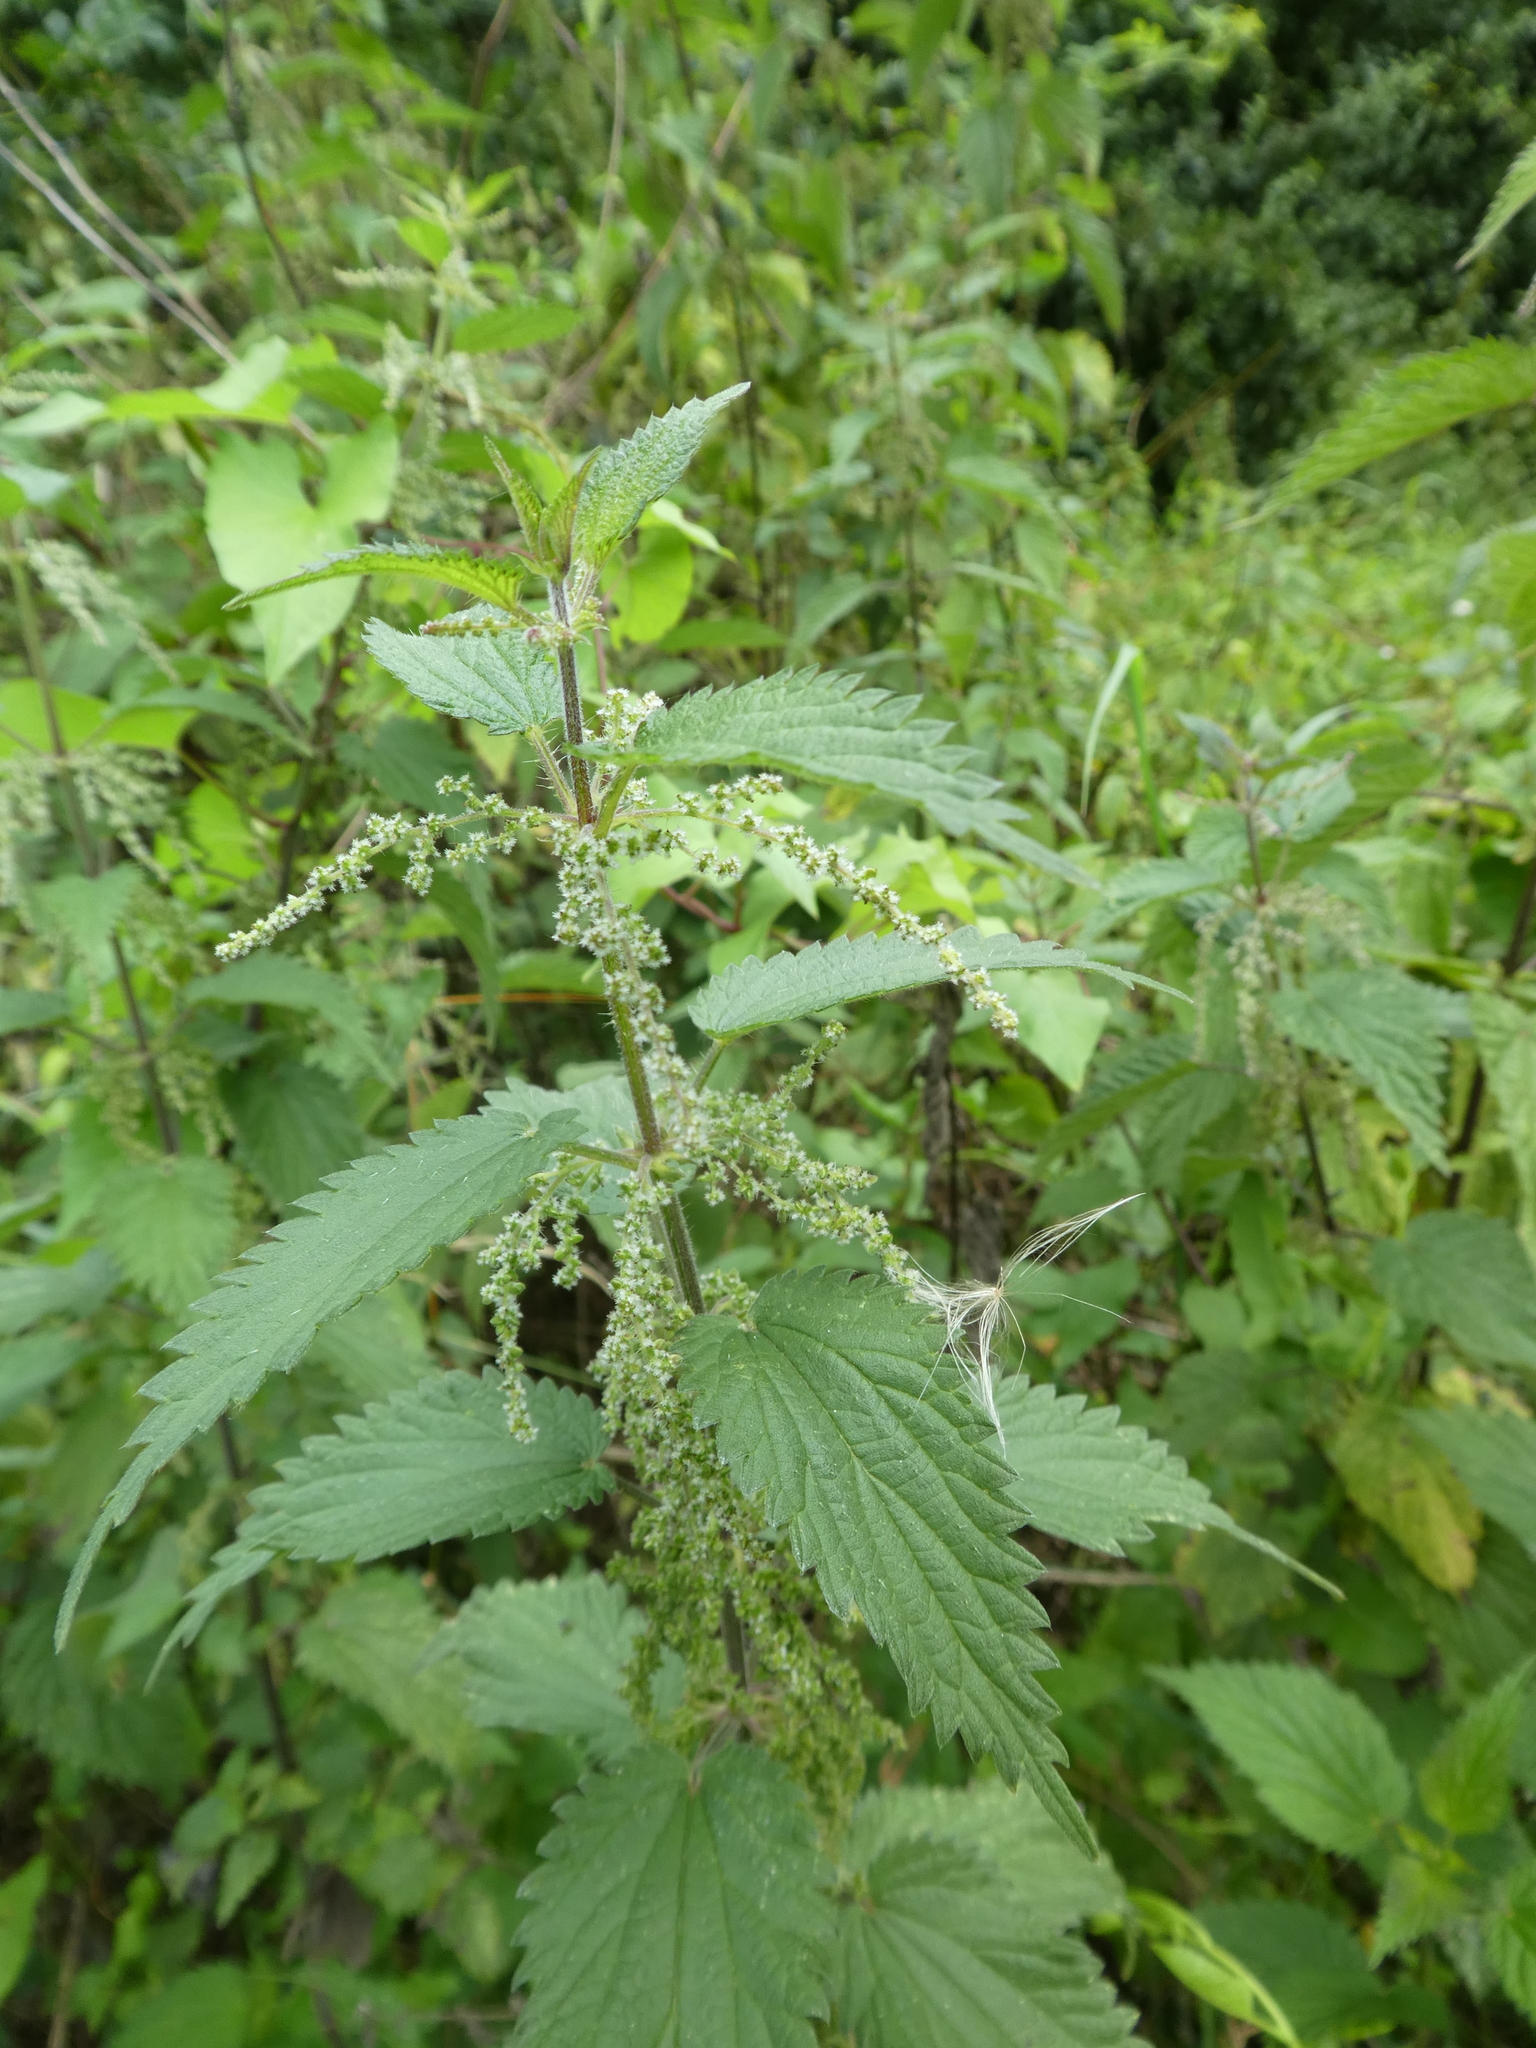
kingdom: Plantae
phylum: Tracheophyta
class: Magnoliopsida
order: Rosales
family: Urticaceae
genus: Urtica
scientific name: Urtica dioica
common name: Common nettle
